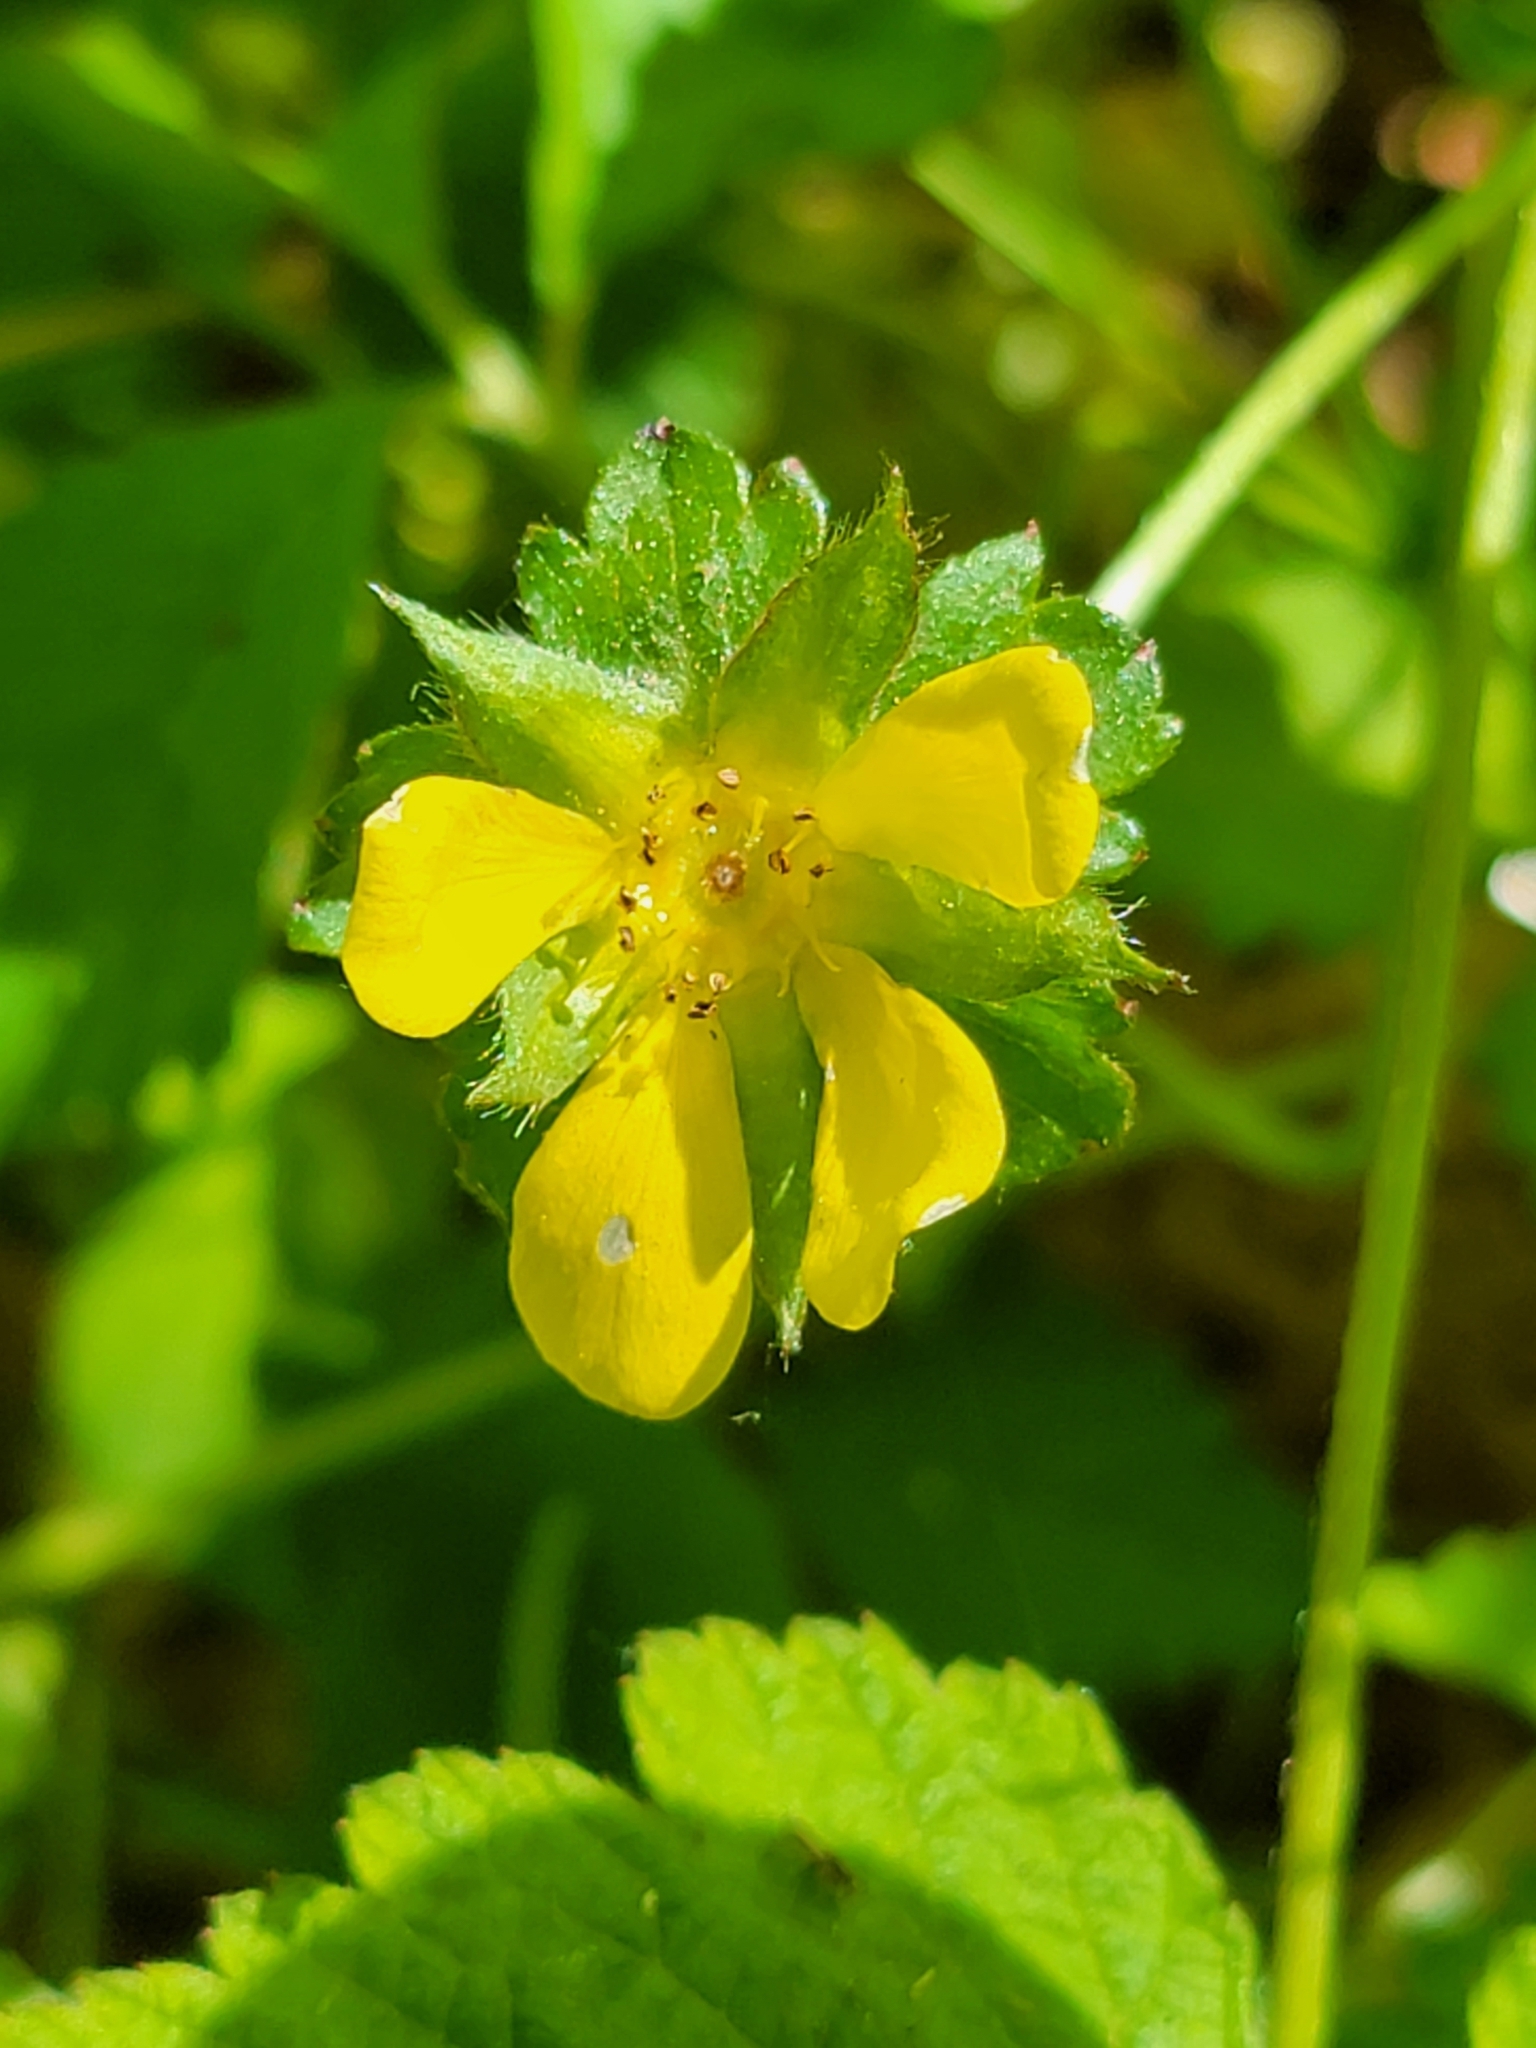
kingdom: Plantae
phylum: Tracheophyta
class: Magnoliopsida
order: Rosales
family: Rosaceae
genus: Potentilla
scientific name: Potentilla indica
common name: Yellow-flowered strawberry
